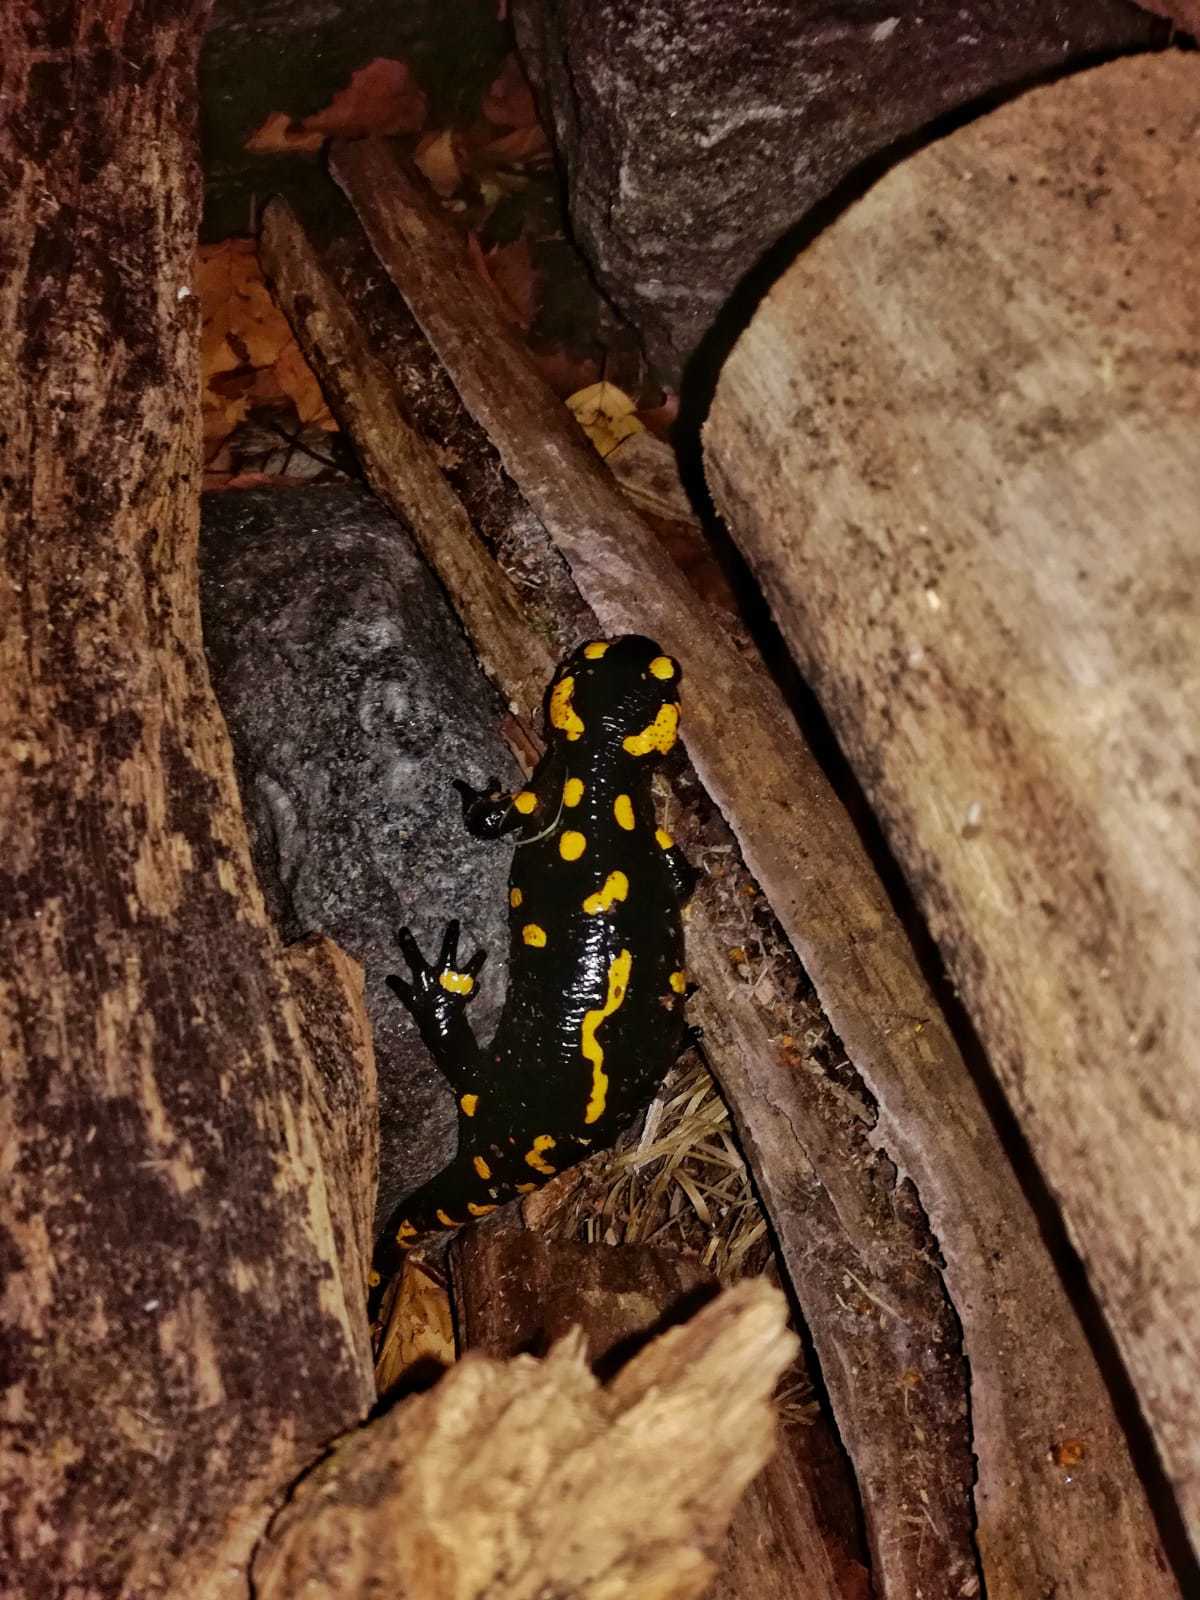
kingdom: Animalia
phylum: Chordata
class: Amphibia
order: Caudata
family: Salamandridae
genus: Salamandra
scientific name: Salamandra salamandra
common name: Fire salamander
